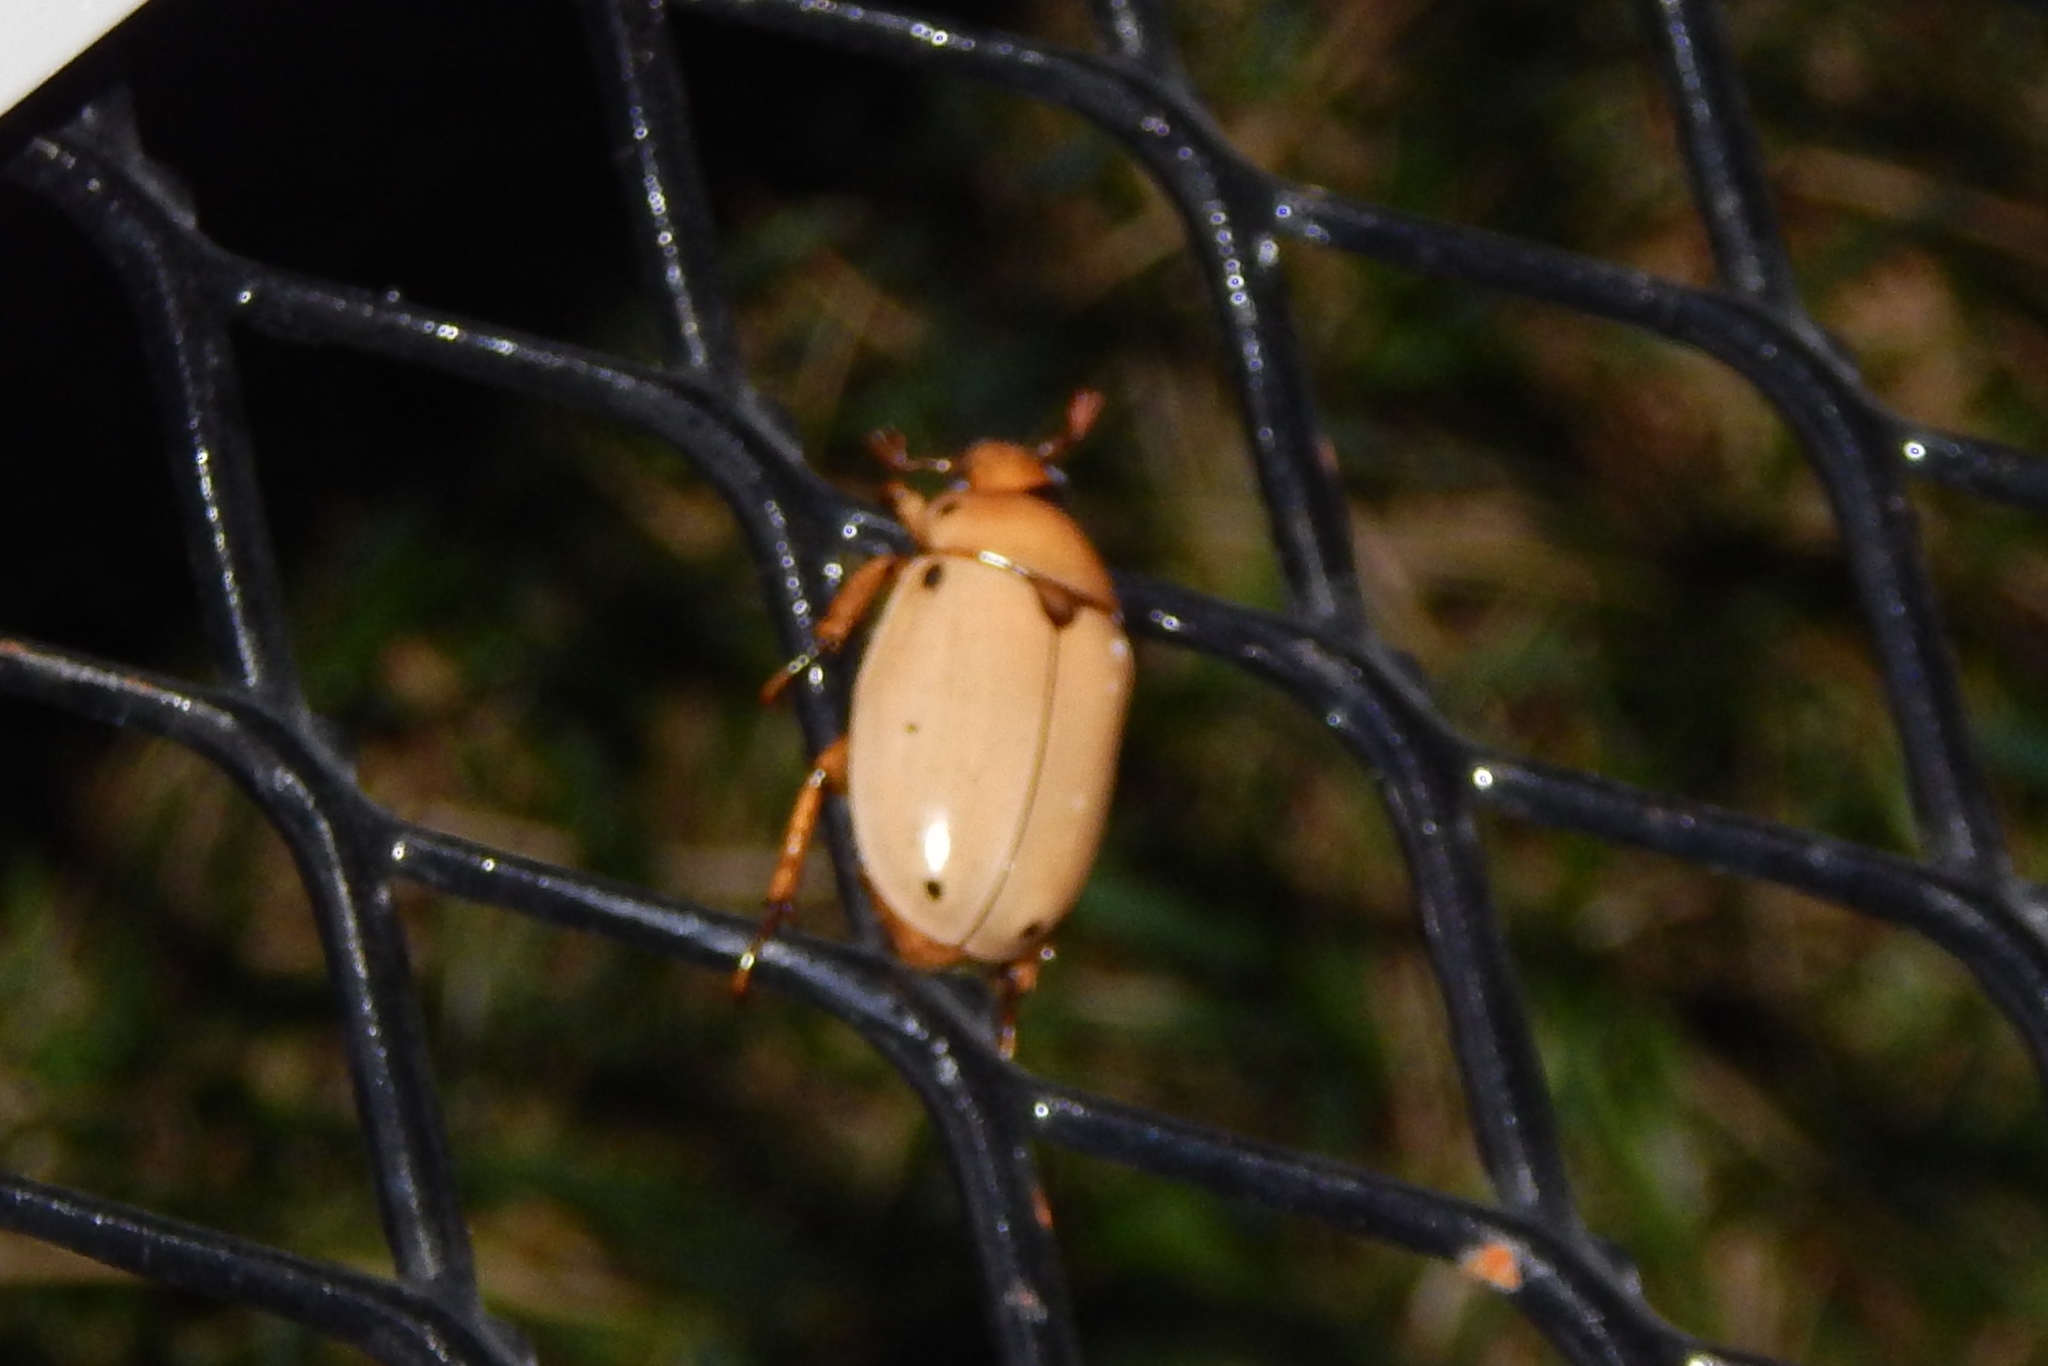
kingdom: Animalia
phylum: Arthropoda
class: Insecta
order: Coleoptera
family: Scarabaeidae
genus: Pelidnota
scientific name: Pelidnota punctata
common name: Grapevine beetle
